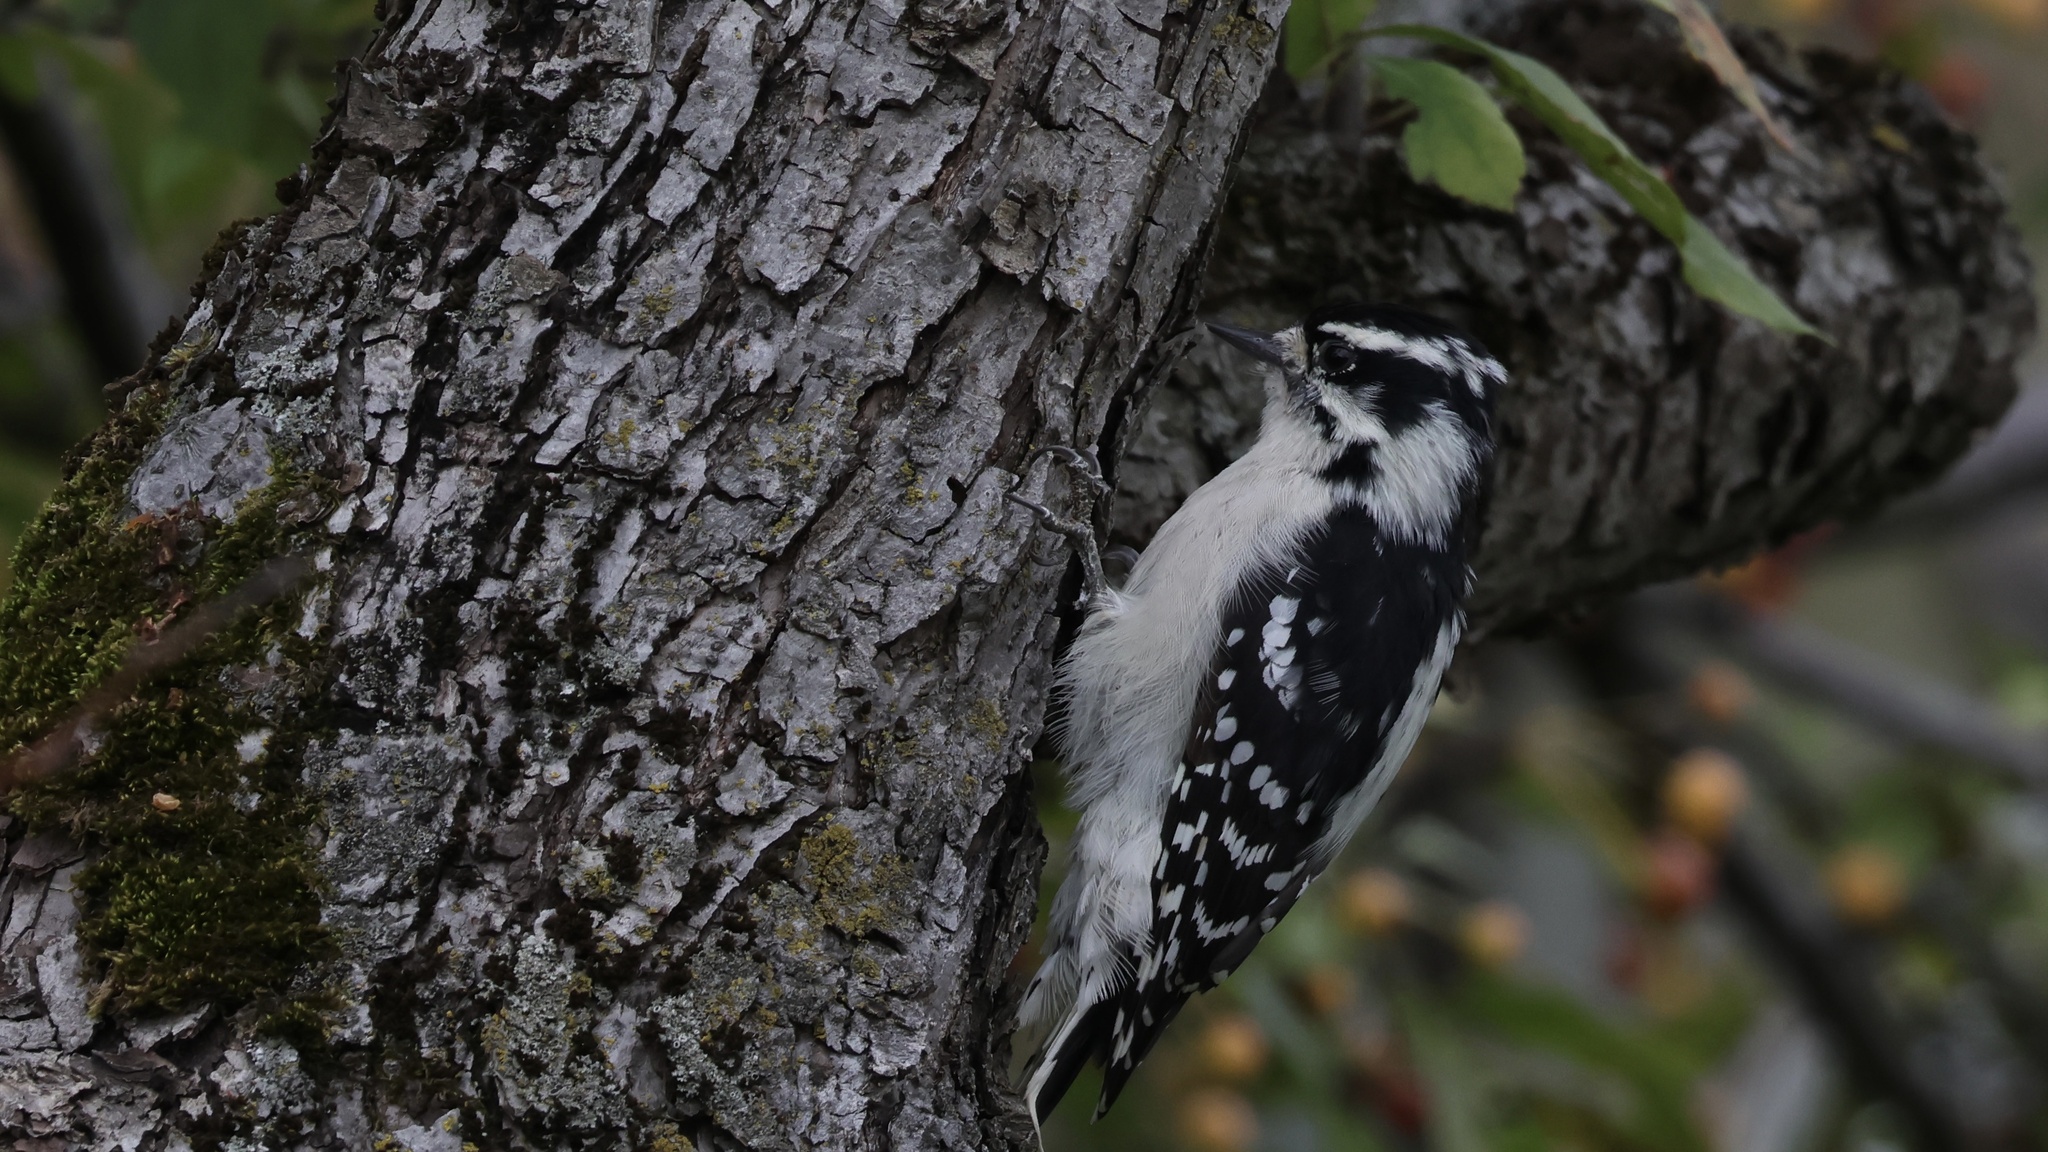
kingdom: Animalia
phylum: Chordata
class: Aves
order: Piciformes
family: Picidae
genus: Dryobates
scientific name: Dryobates pubescens
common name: Downy woodpecker
